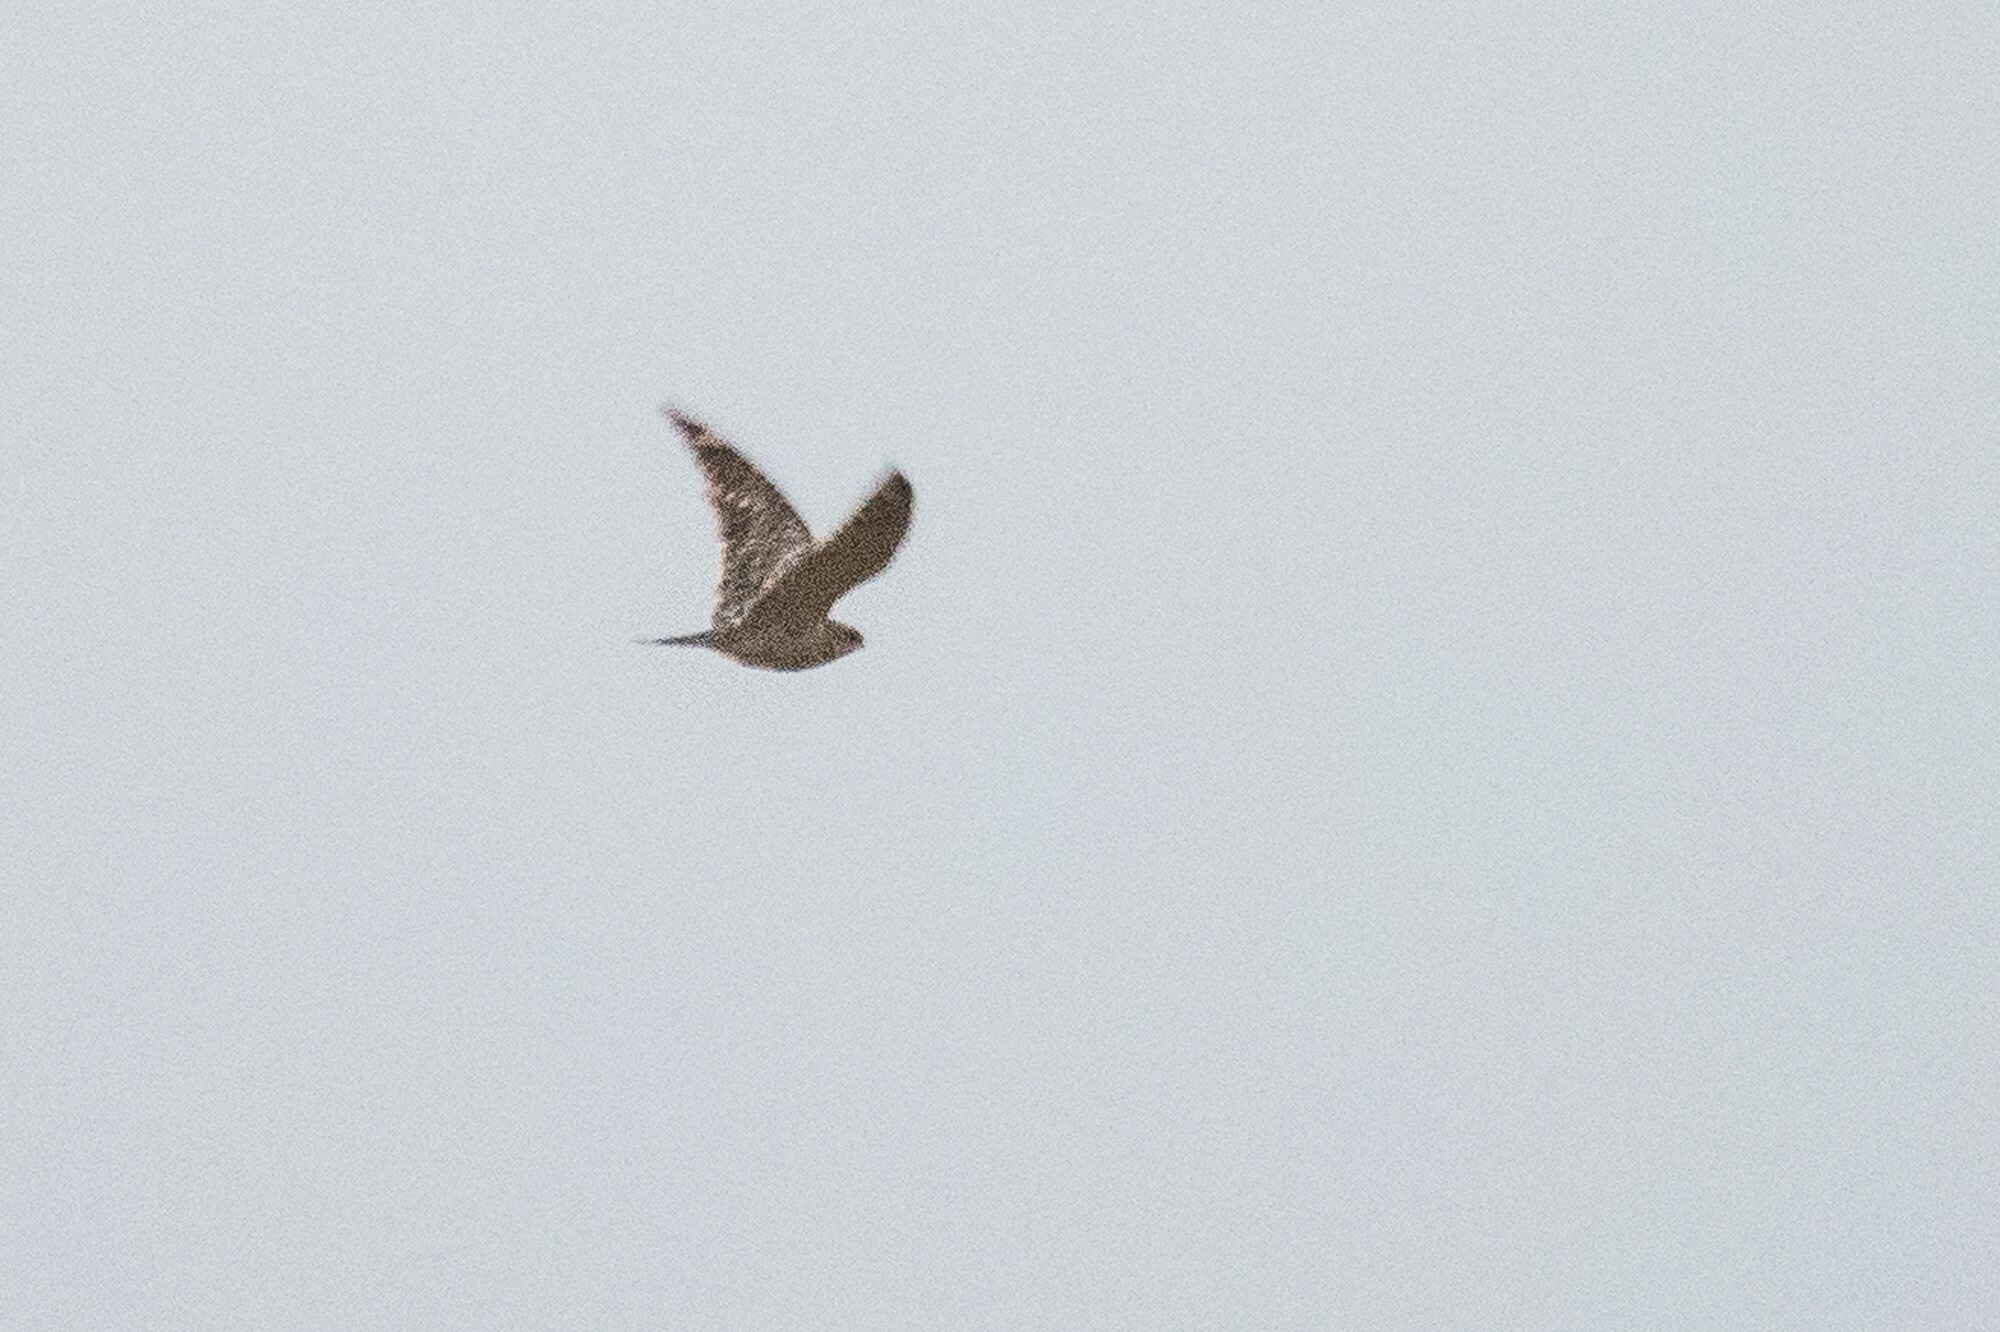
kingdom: Animalia
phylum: Chordata
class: Aves
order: Caprimulgiformes
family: Caprimulgidae
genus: Chordeiles
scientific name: Chordeiles acutipennis
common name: Lesser nighthawk
